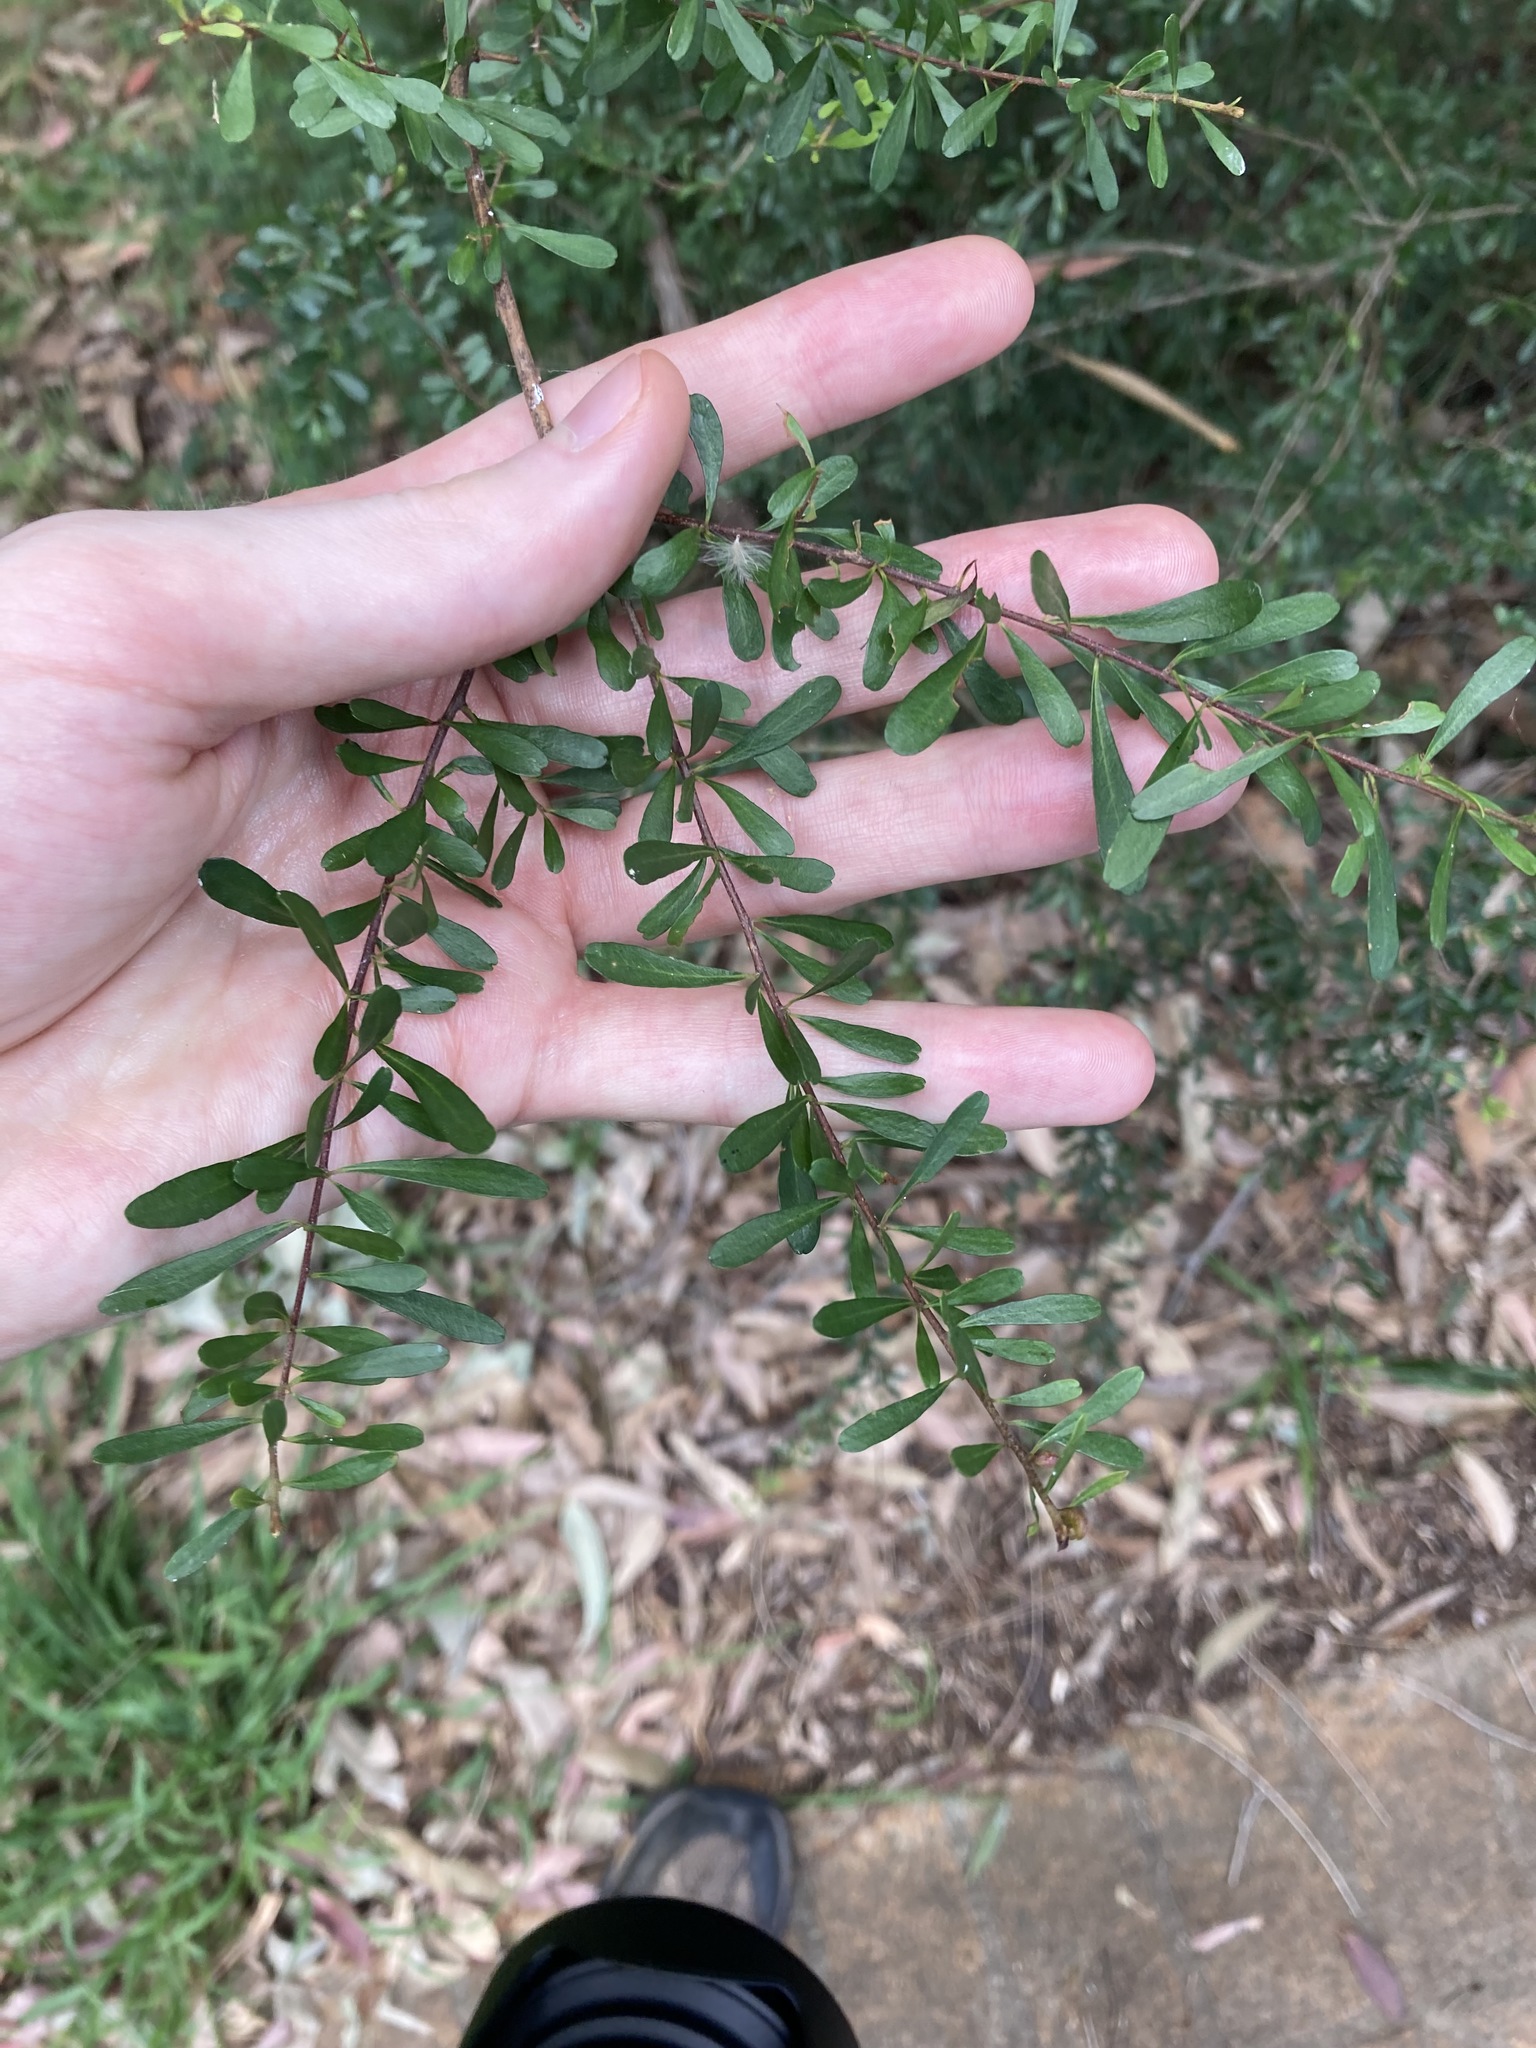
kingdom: Plantae
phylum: Tracheophyta
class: Magnoliopsida
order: Apiales
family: Pittosporaceae
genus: Bursaria
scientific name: Bursaria spinosa
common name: Australian blackthorn
